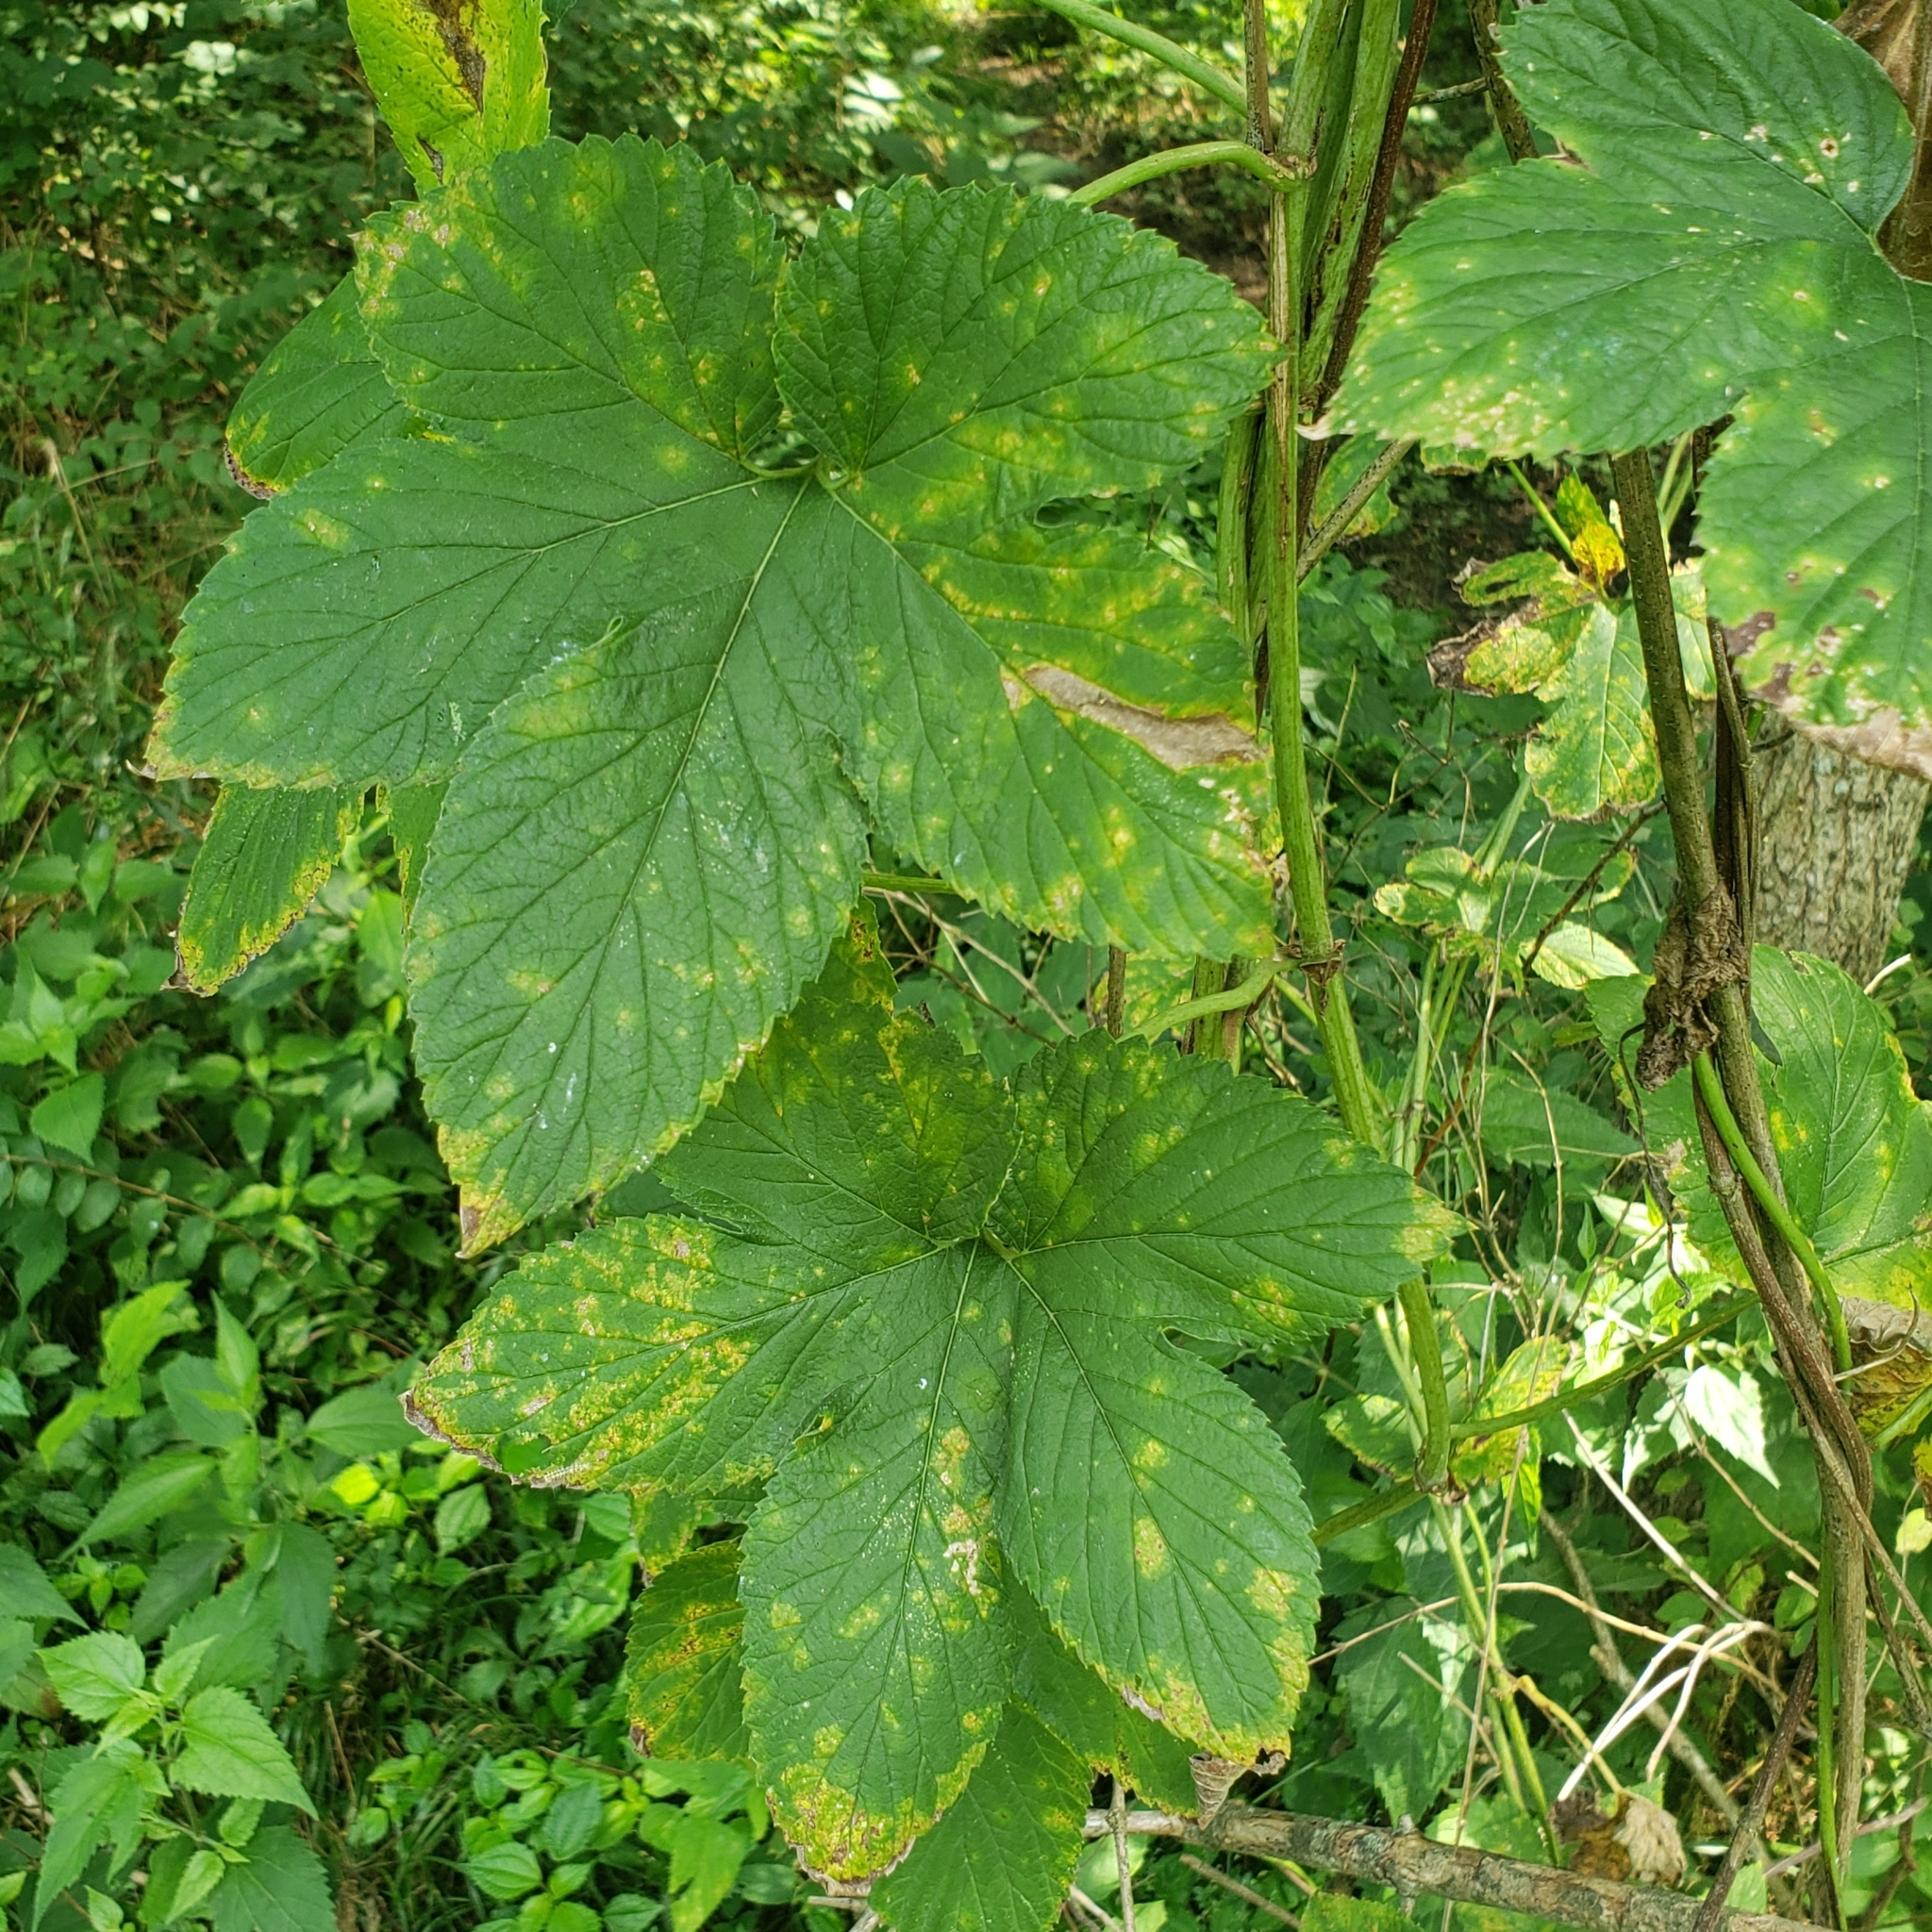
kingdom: Plantae
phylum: Tracheophyta
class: Magnoliopsida
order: Rosales
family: Cannabaceae
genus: Humulus
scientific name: Humulus lupulus
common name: Hop
